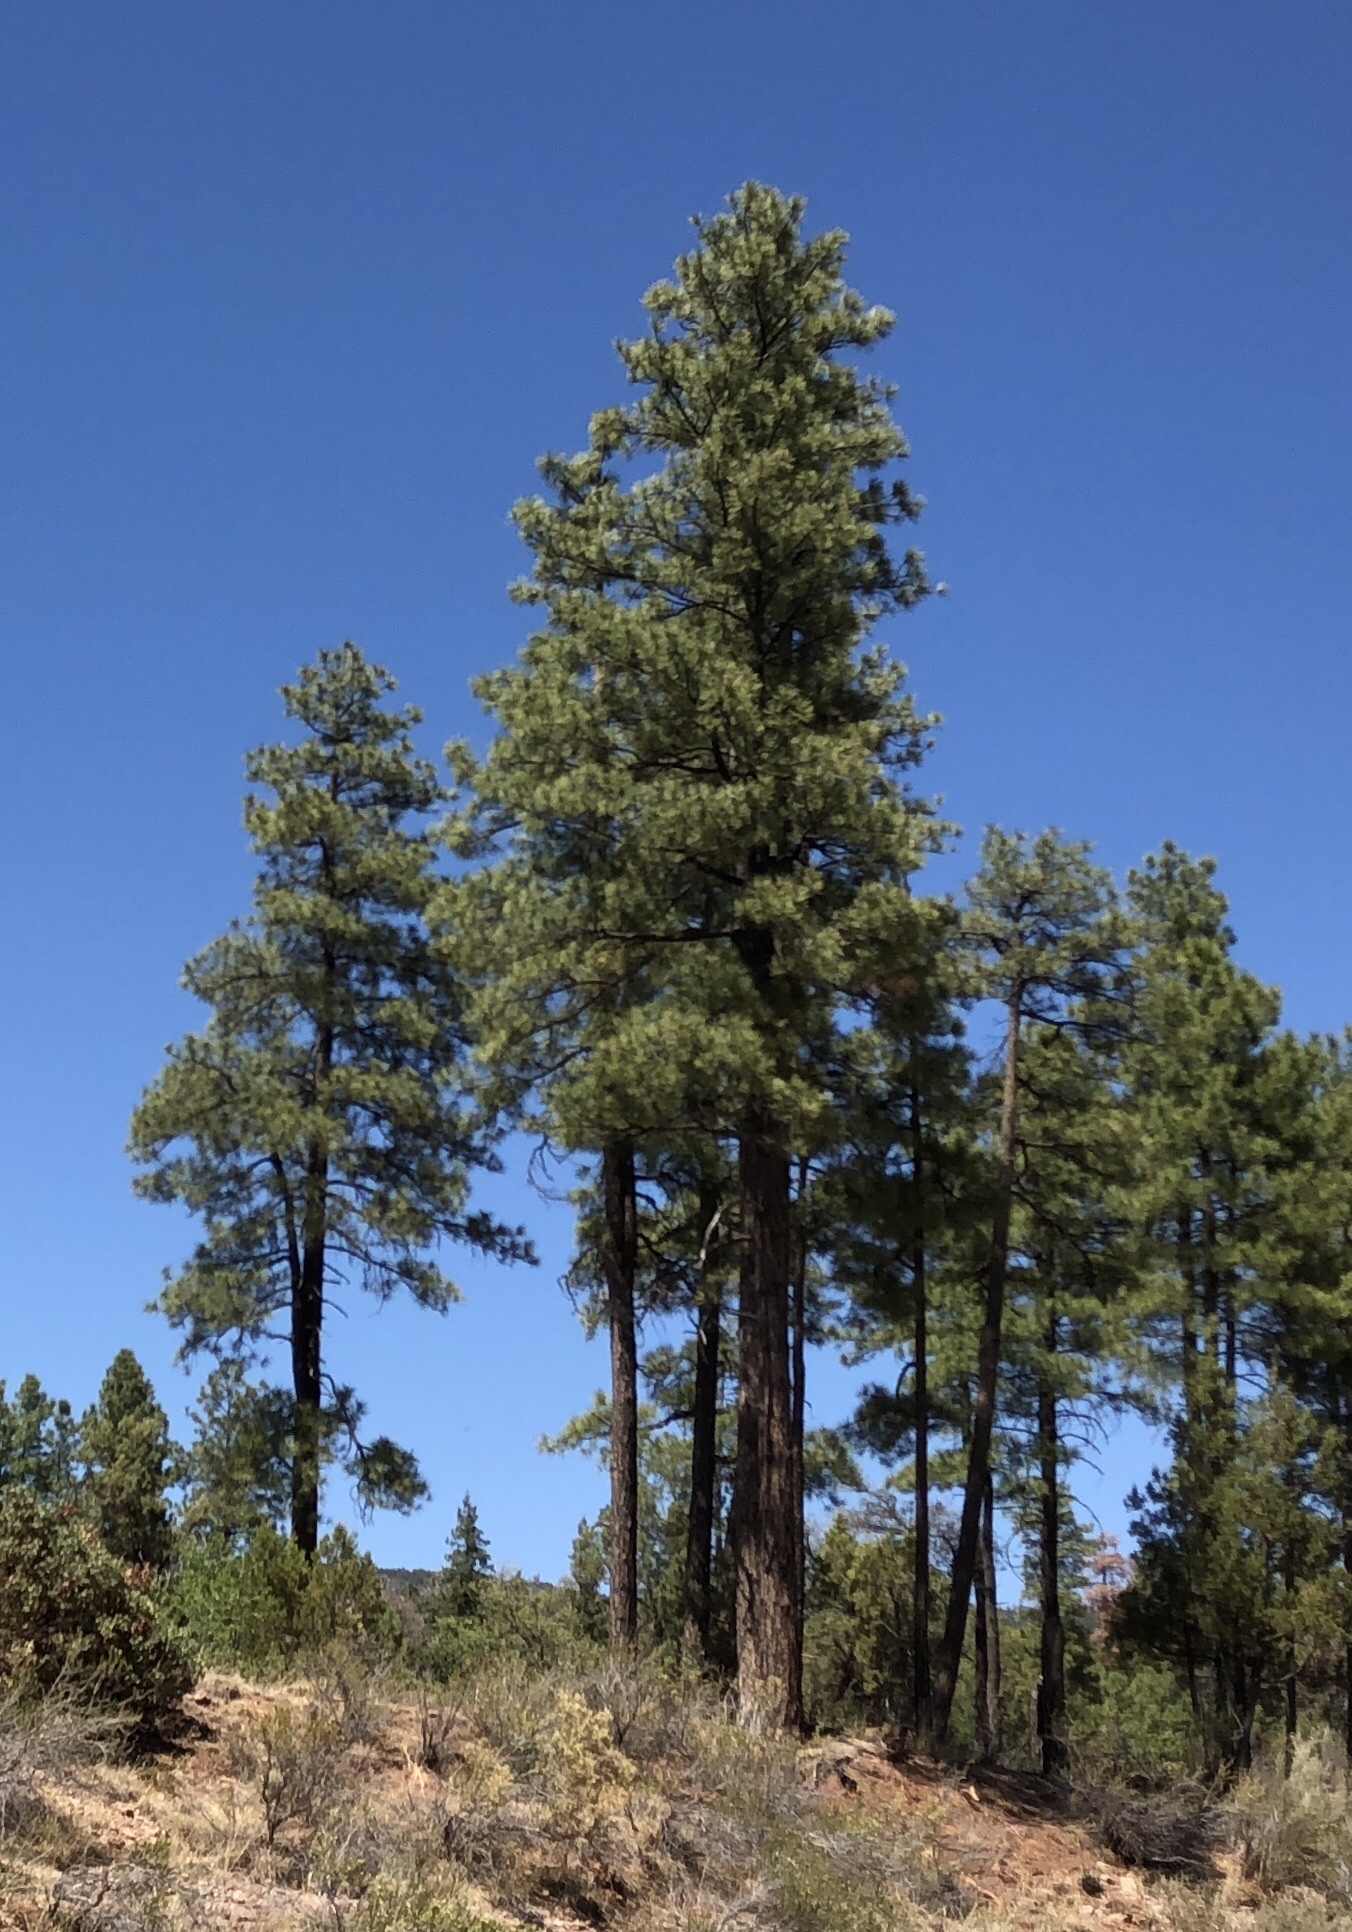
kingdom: Plantae
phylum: Tracheophyta
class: Pinopsida
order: Pinales
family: Pinaceae
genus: Pinus
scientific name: Pinus ponderosa
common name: Western yellow-pine
